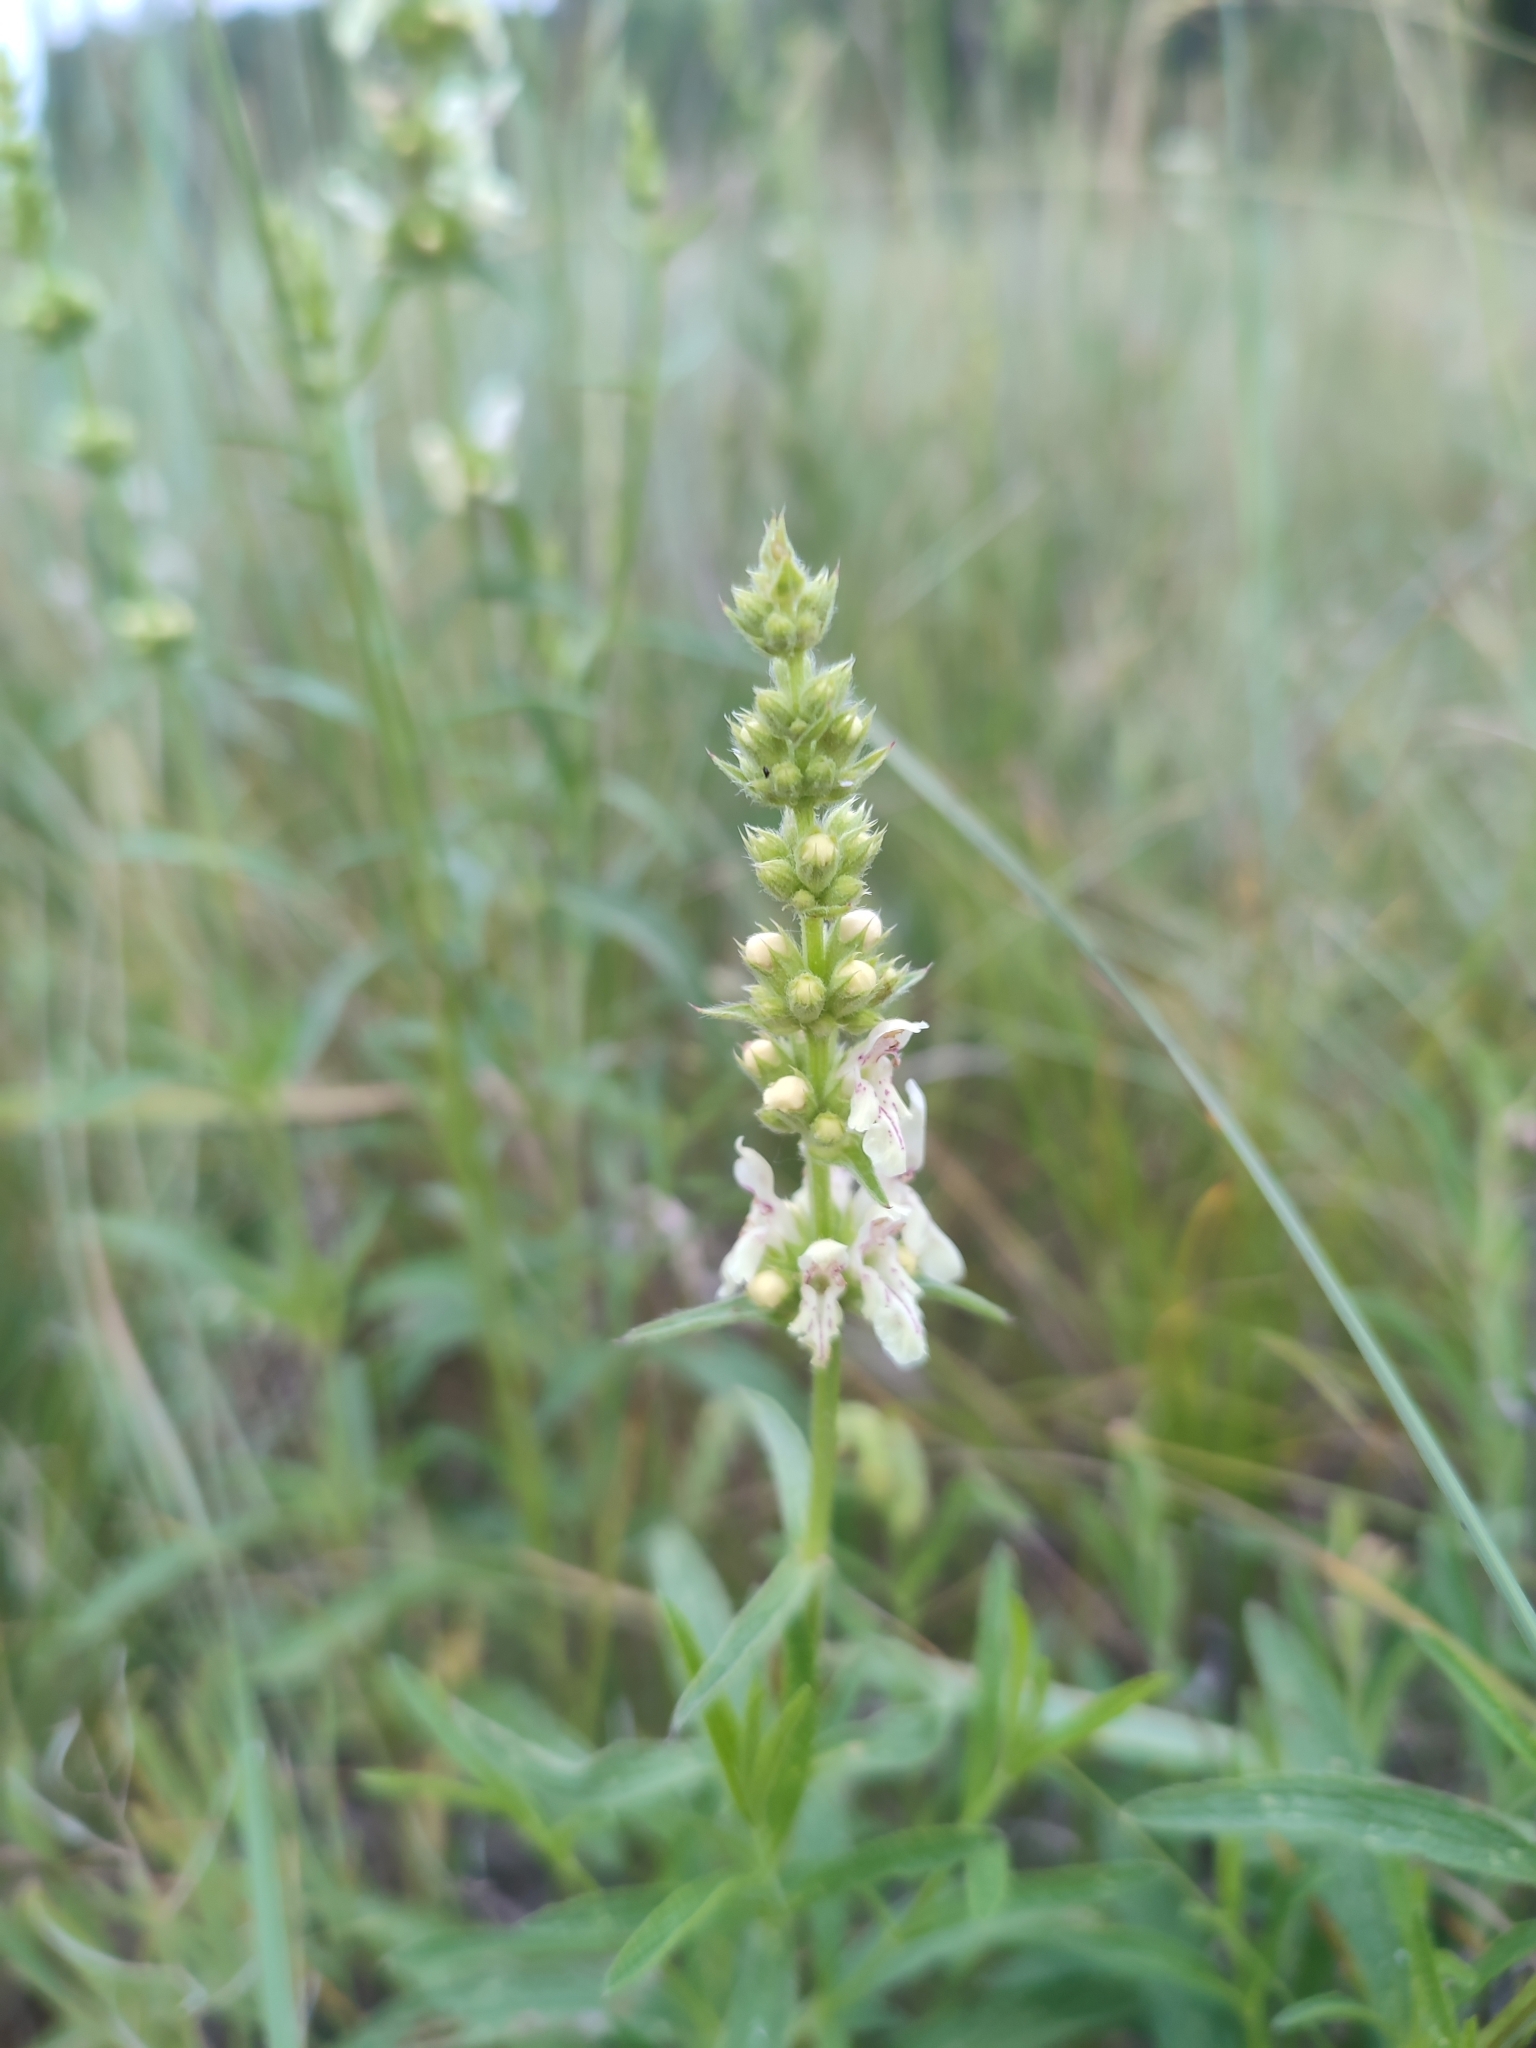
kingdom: Plantae
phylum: Tracheophyta
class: Magnoliopsida
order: Lamiales
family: Lamiaceae
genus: Stachys
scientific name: Stachys recta
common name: Perennial yellow-woundwort
